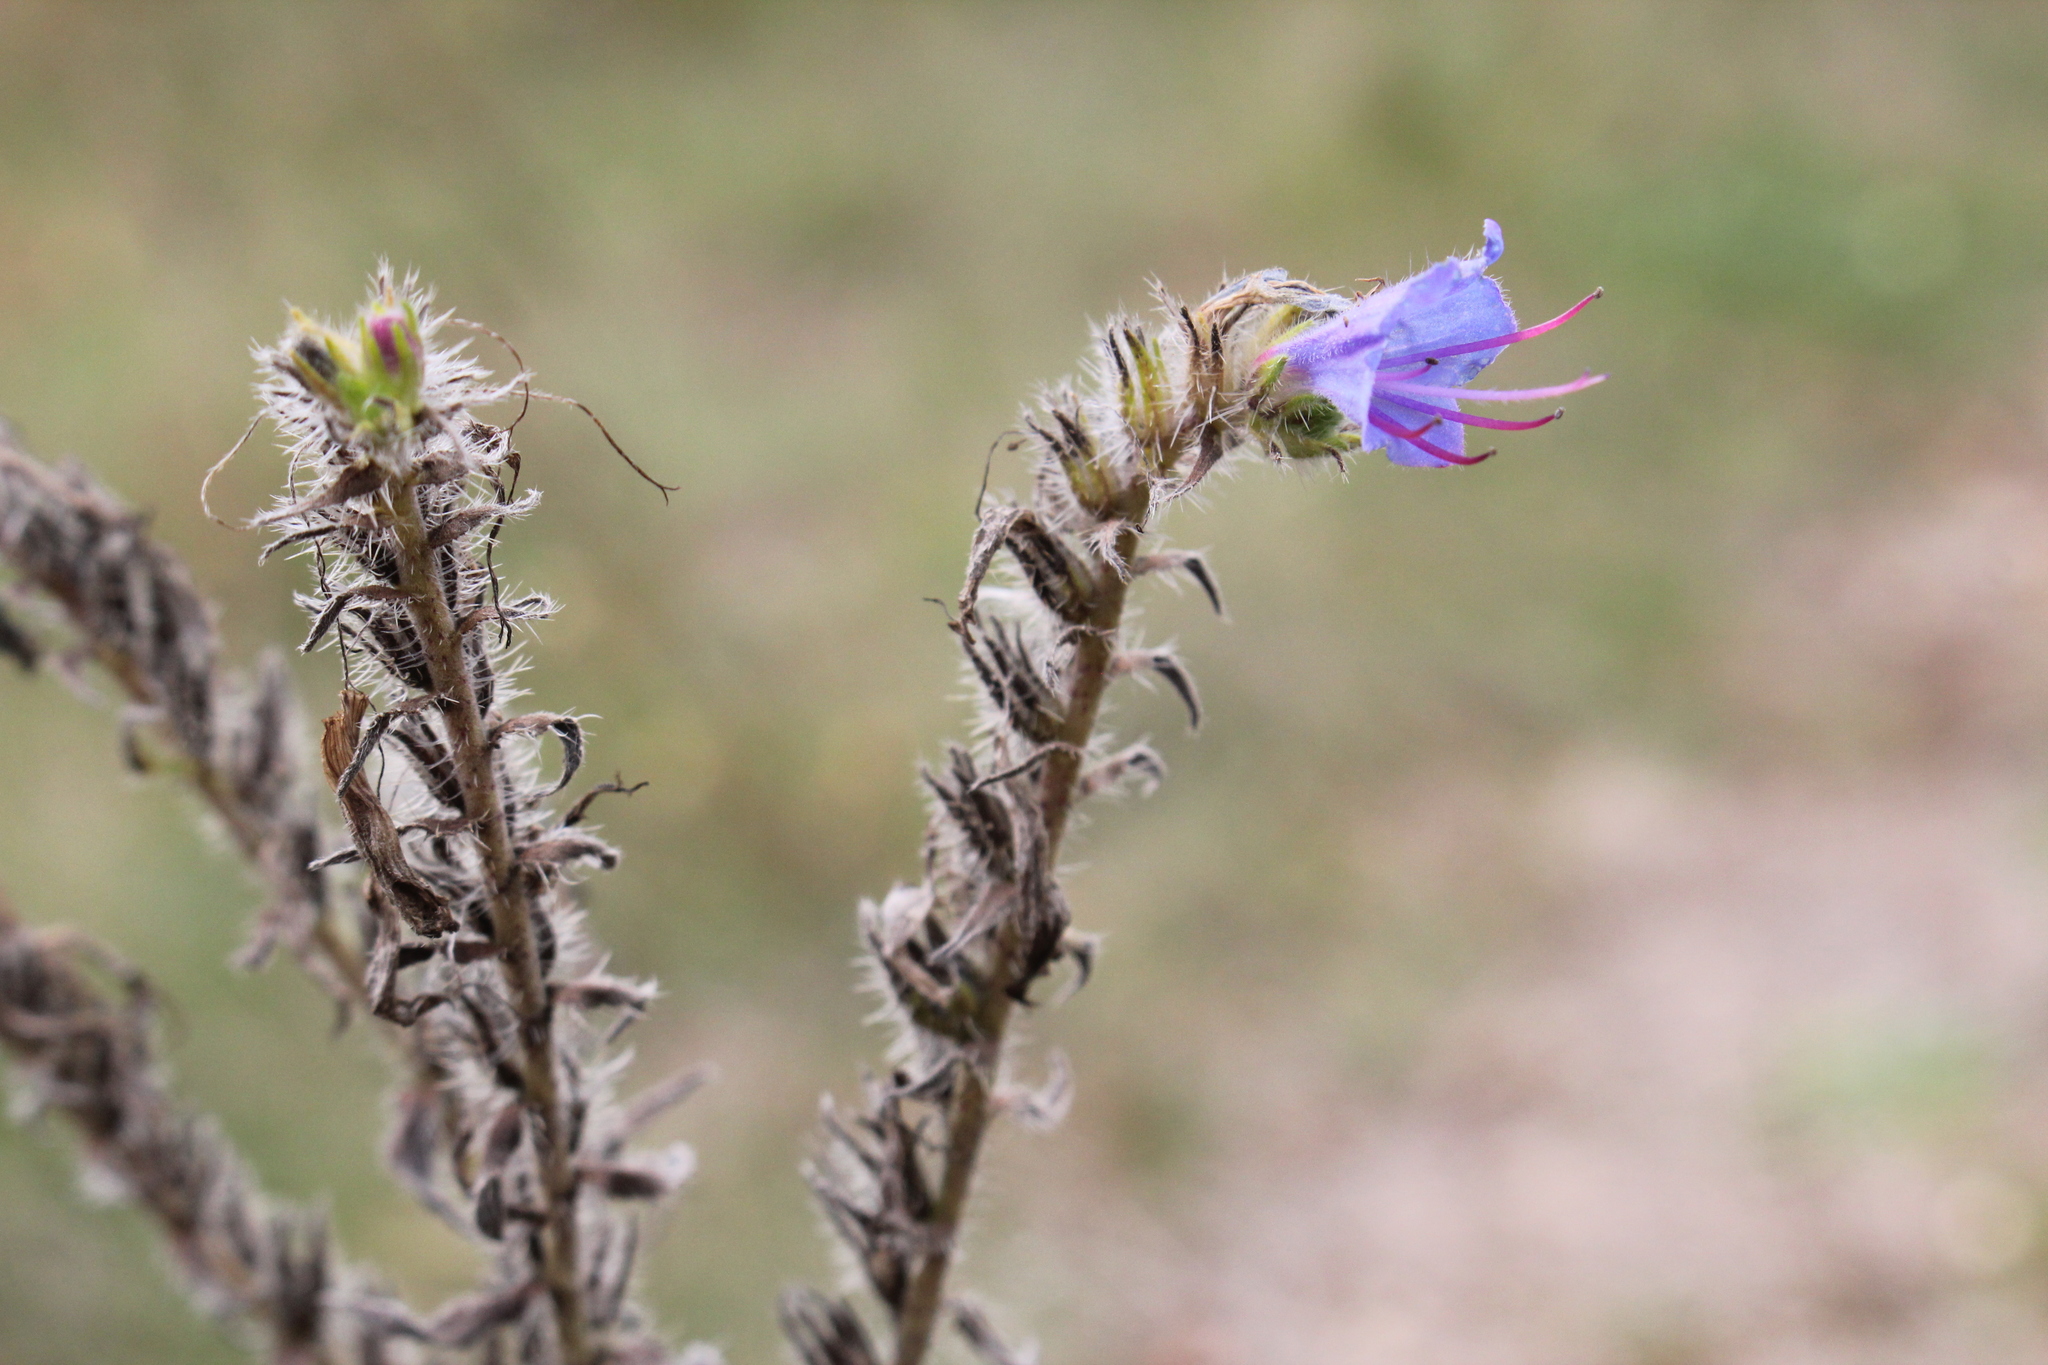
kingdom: Plantae
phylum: Tracheophyta
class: Magnoliopsida
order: Boraginales
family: Boraginaceae
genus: Echium
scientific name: Echium vulgare
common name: Common viper's bugloss
